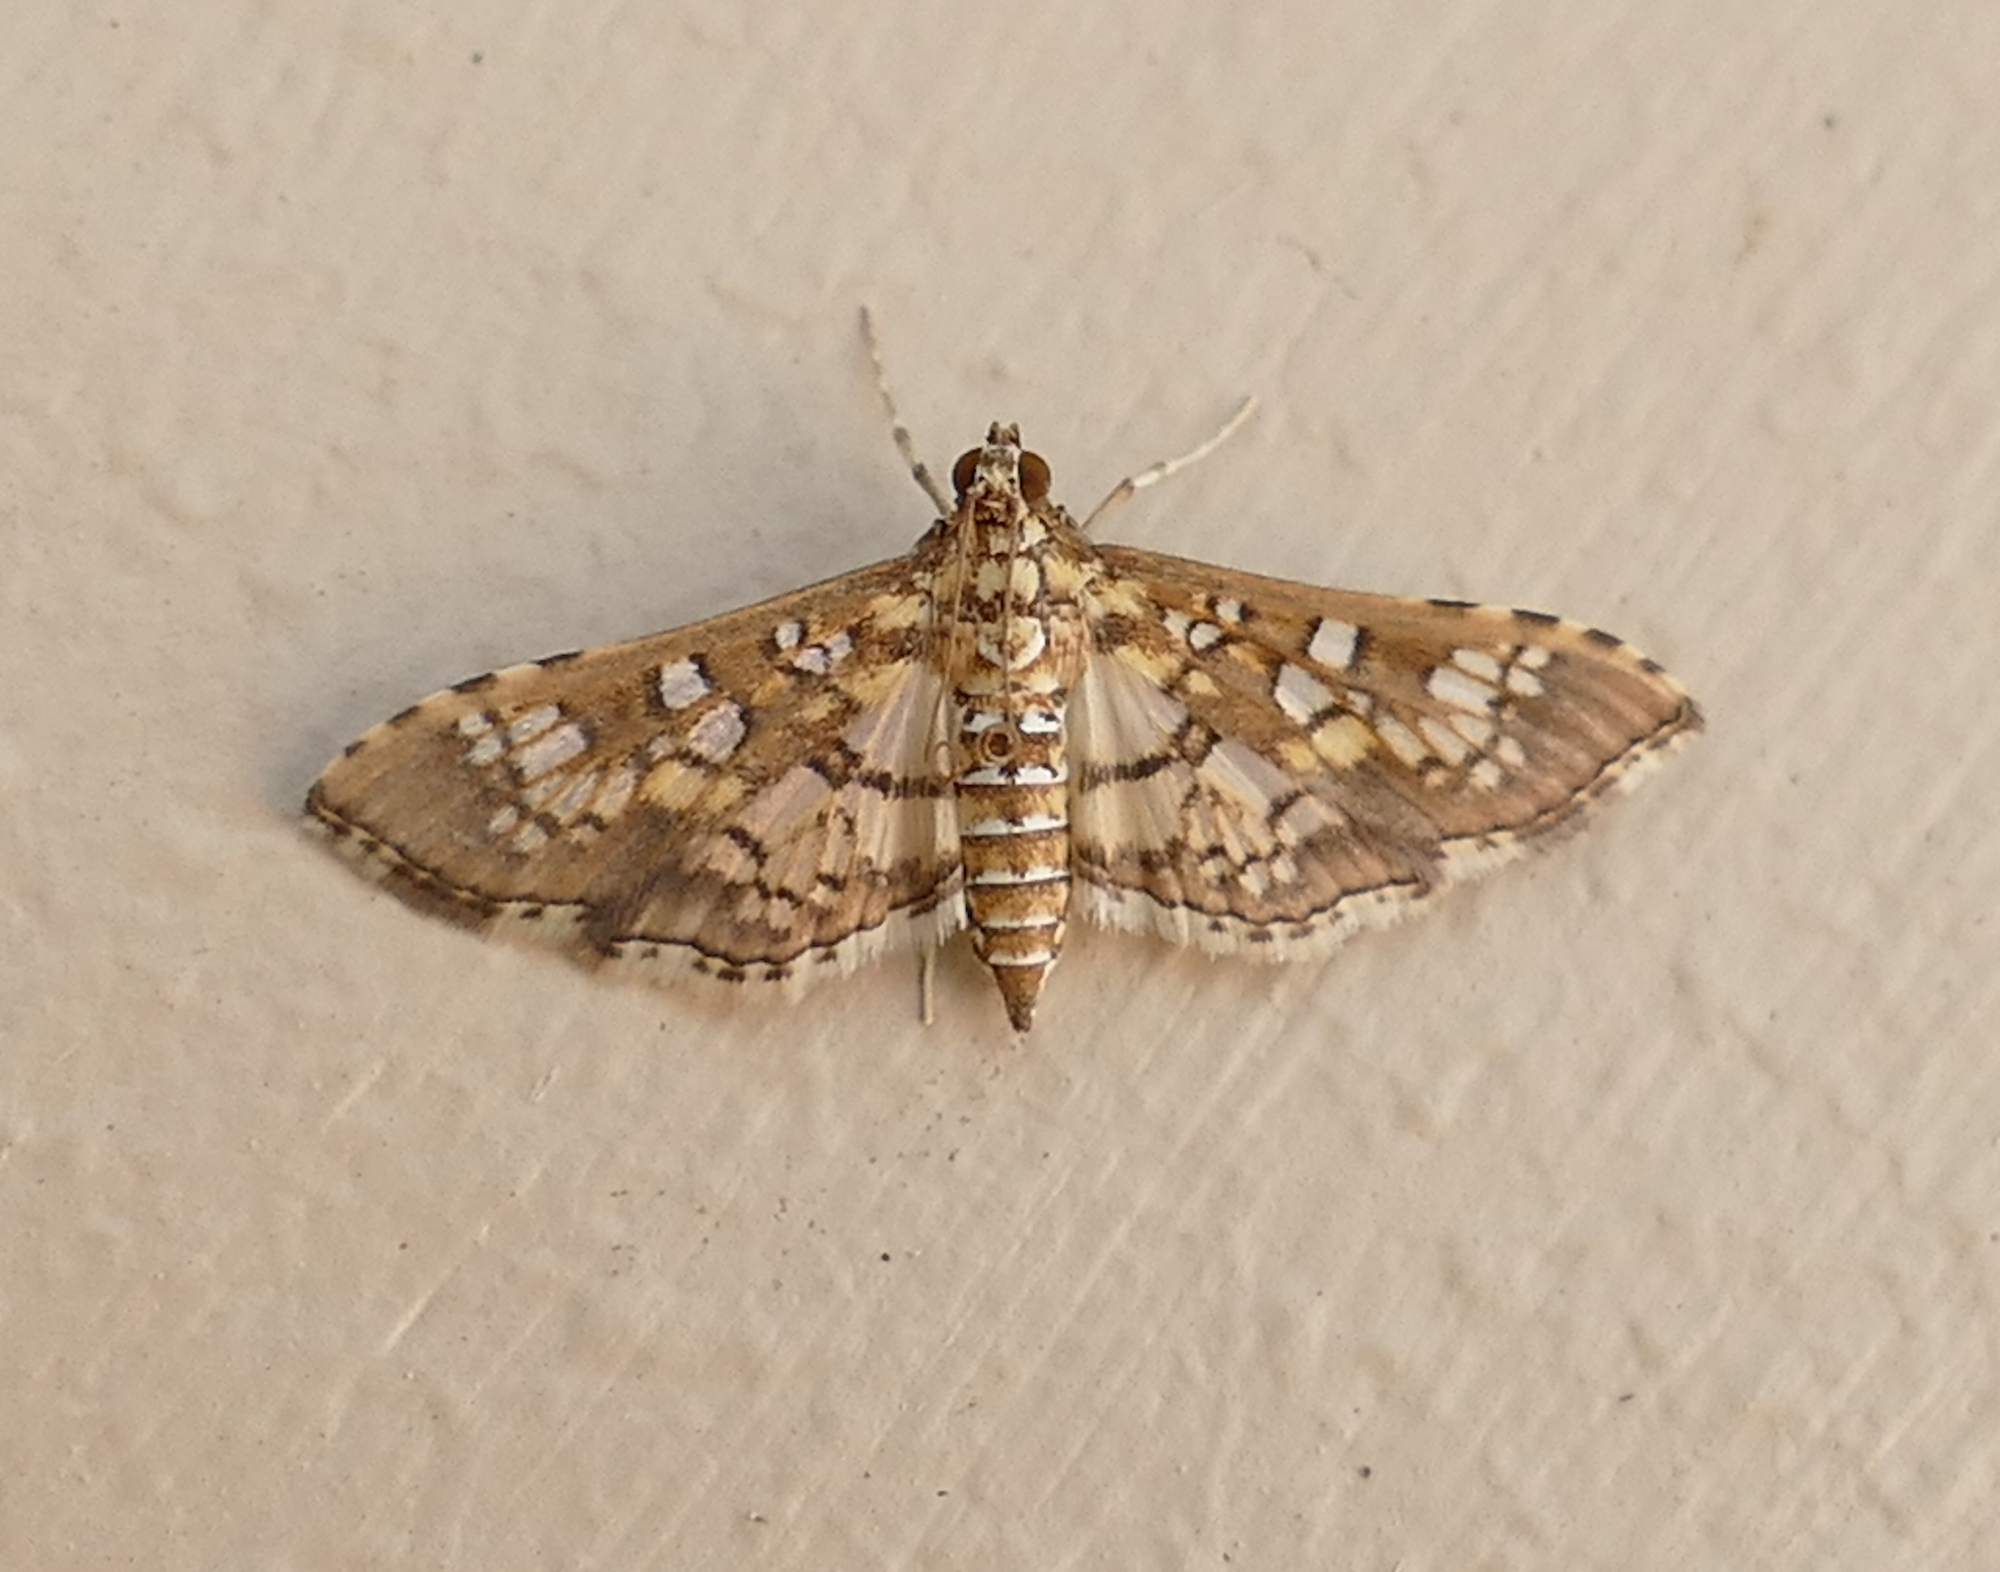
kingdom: Animalia
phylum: Arthropoda
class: Insecta
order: Lepidoptera
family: Crambidae
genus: Samea
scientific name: Samea ecclesialis
